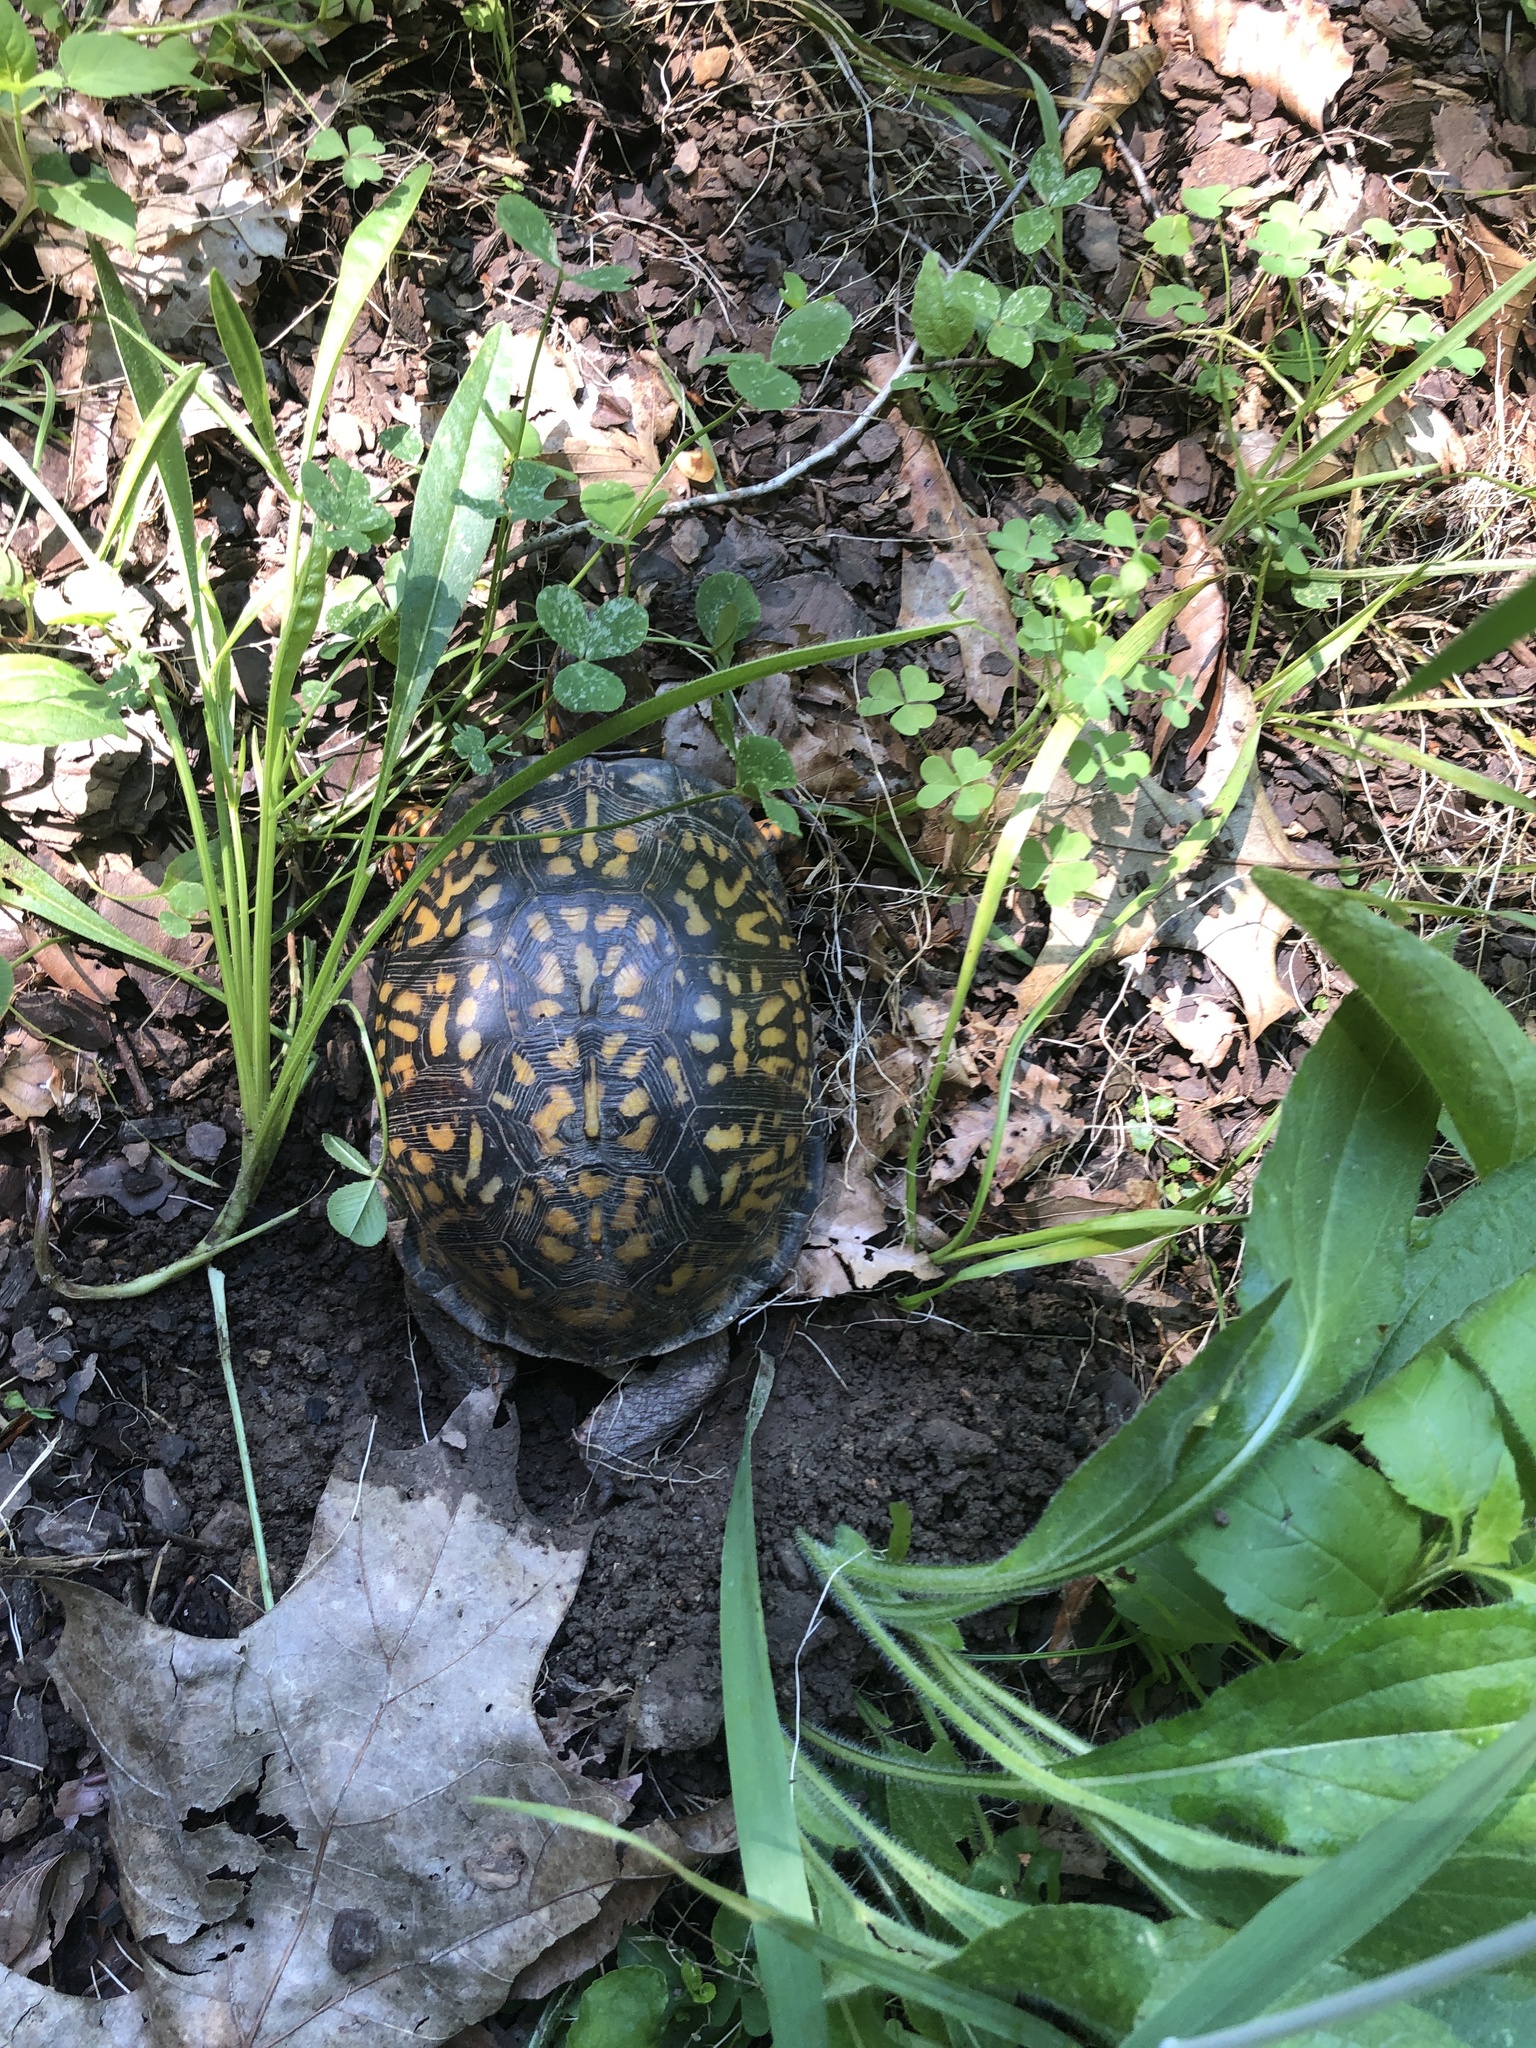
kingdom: Animalia
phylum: Chordata
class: Testudines
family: Emydidae
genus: Terrapene
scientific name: Terrapene carolina
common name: Common box turtle
